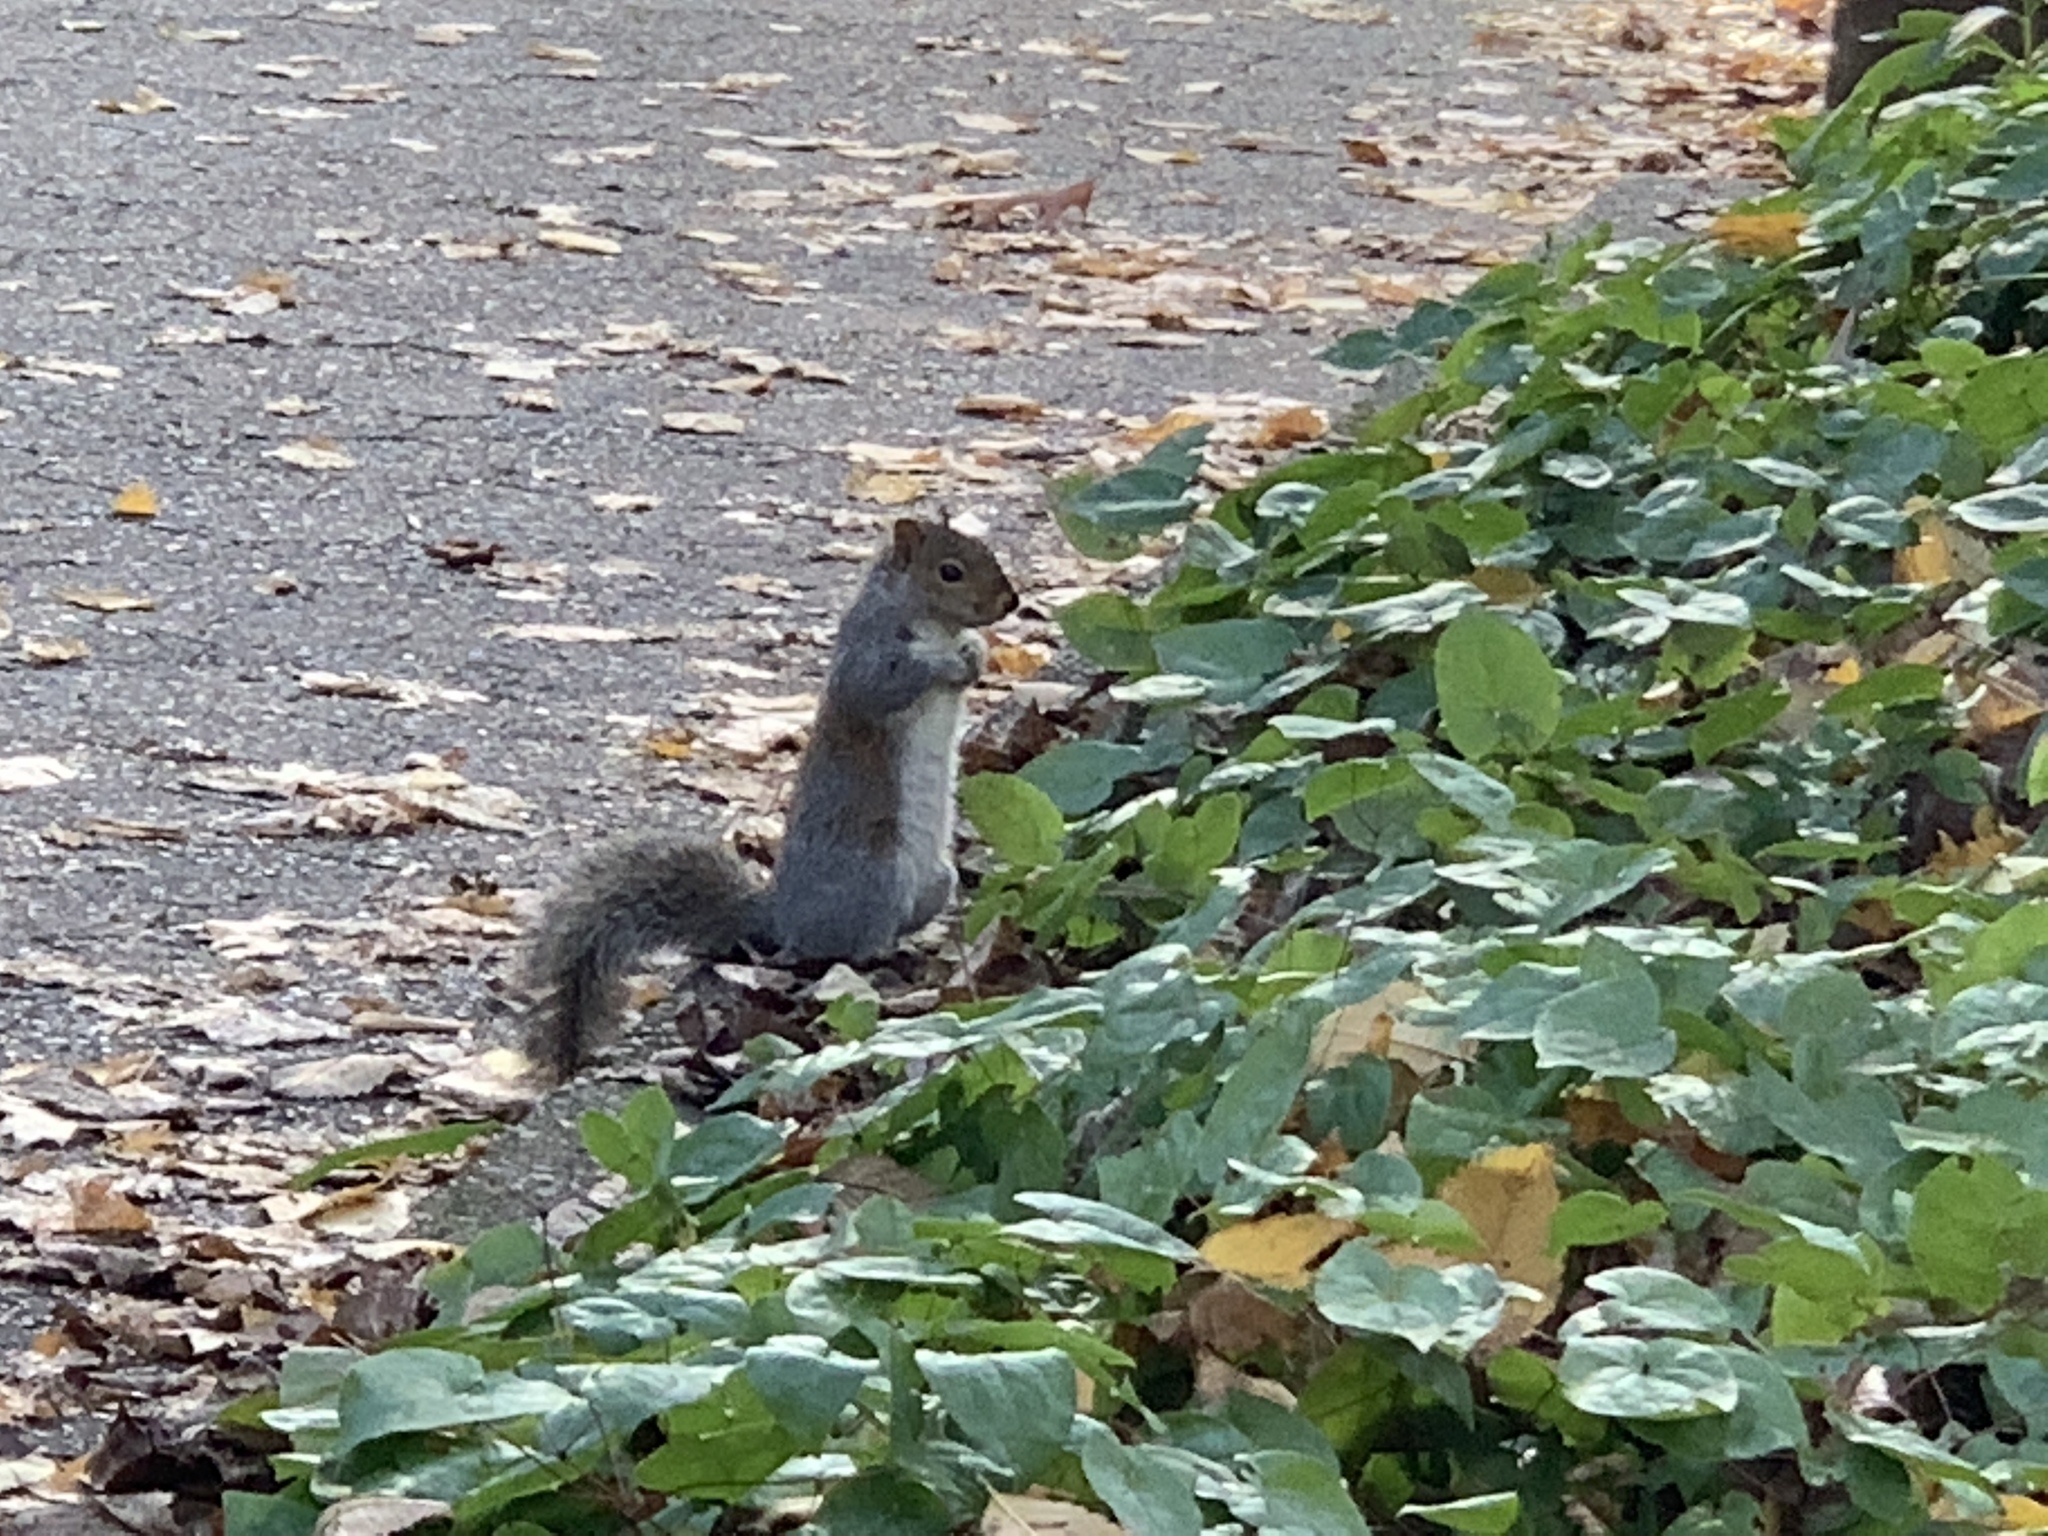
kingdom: Animalia
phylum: Chordata
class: Mammalia
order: Rodentia
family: Sciuridae
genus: Sciurus
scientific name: Sciurus carolinensis
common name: Eastern gray squirrel
